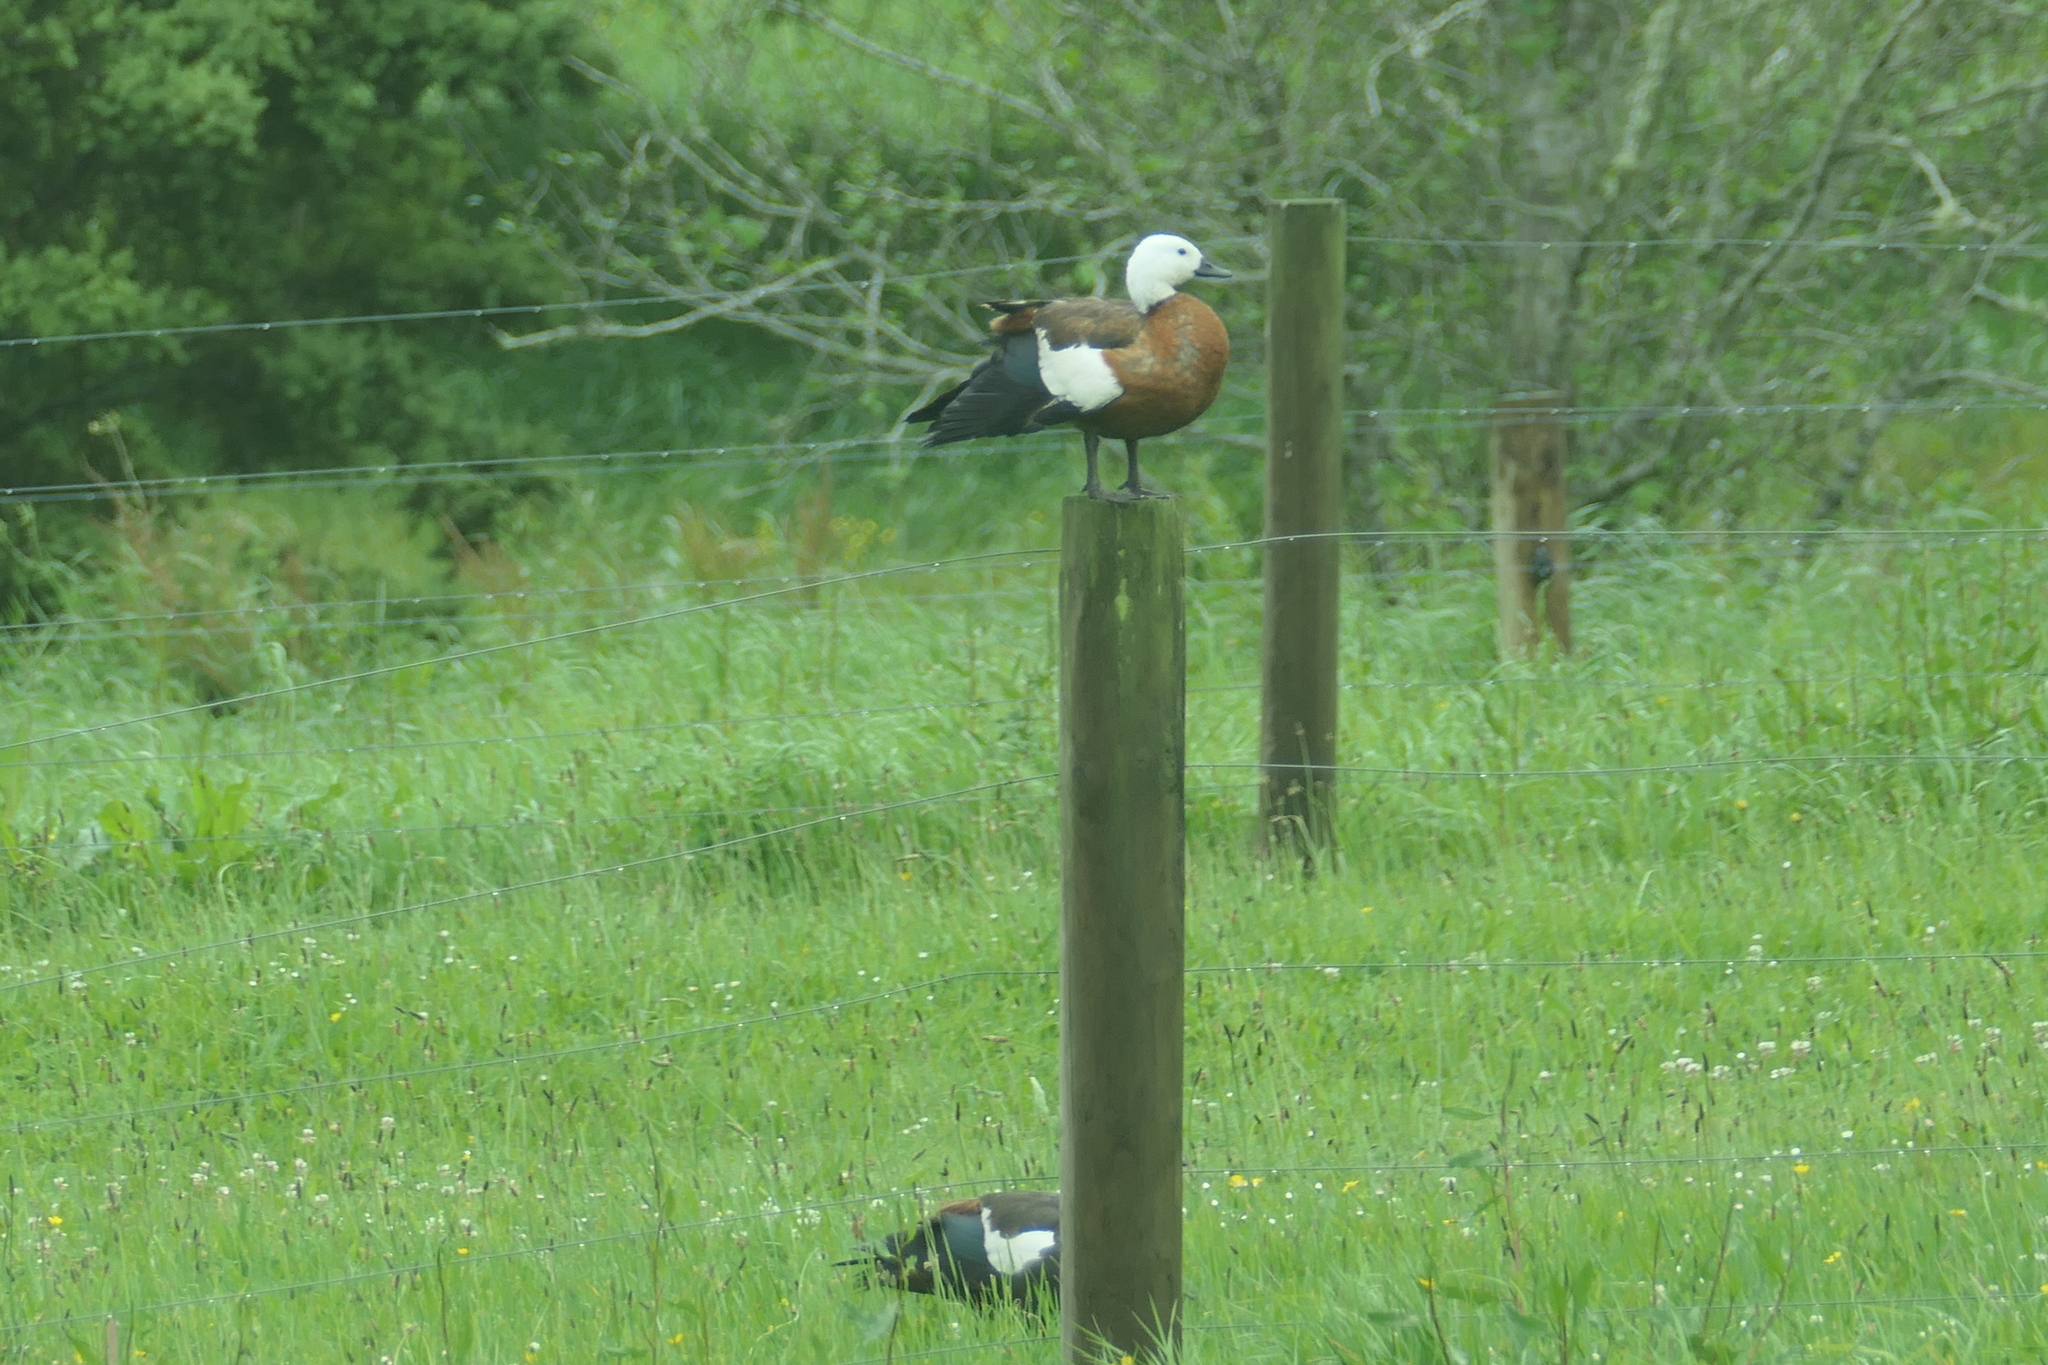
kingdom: Animalia
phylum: Chordata
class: Aves
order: Anseriformes
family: Anatidae
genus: Tadorna
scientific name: Tadorna variegata
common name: Paradise shelduck
